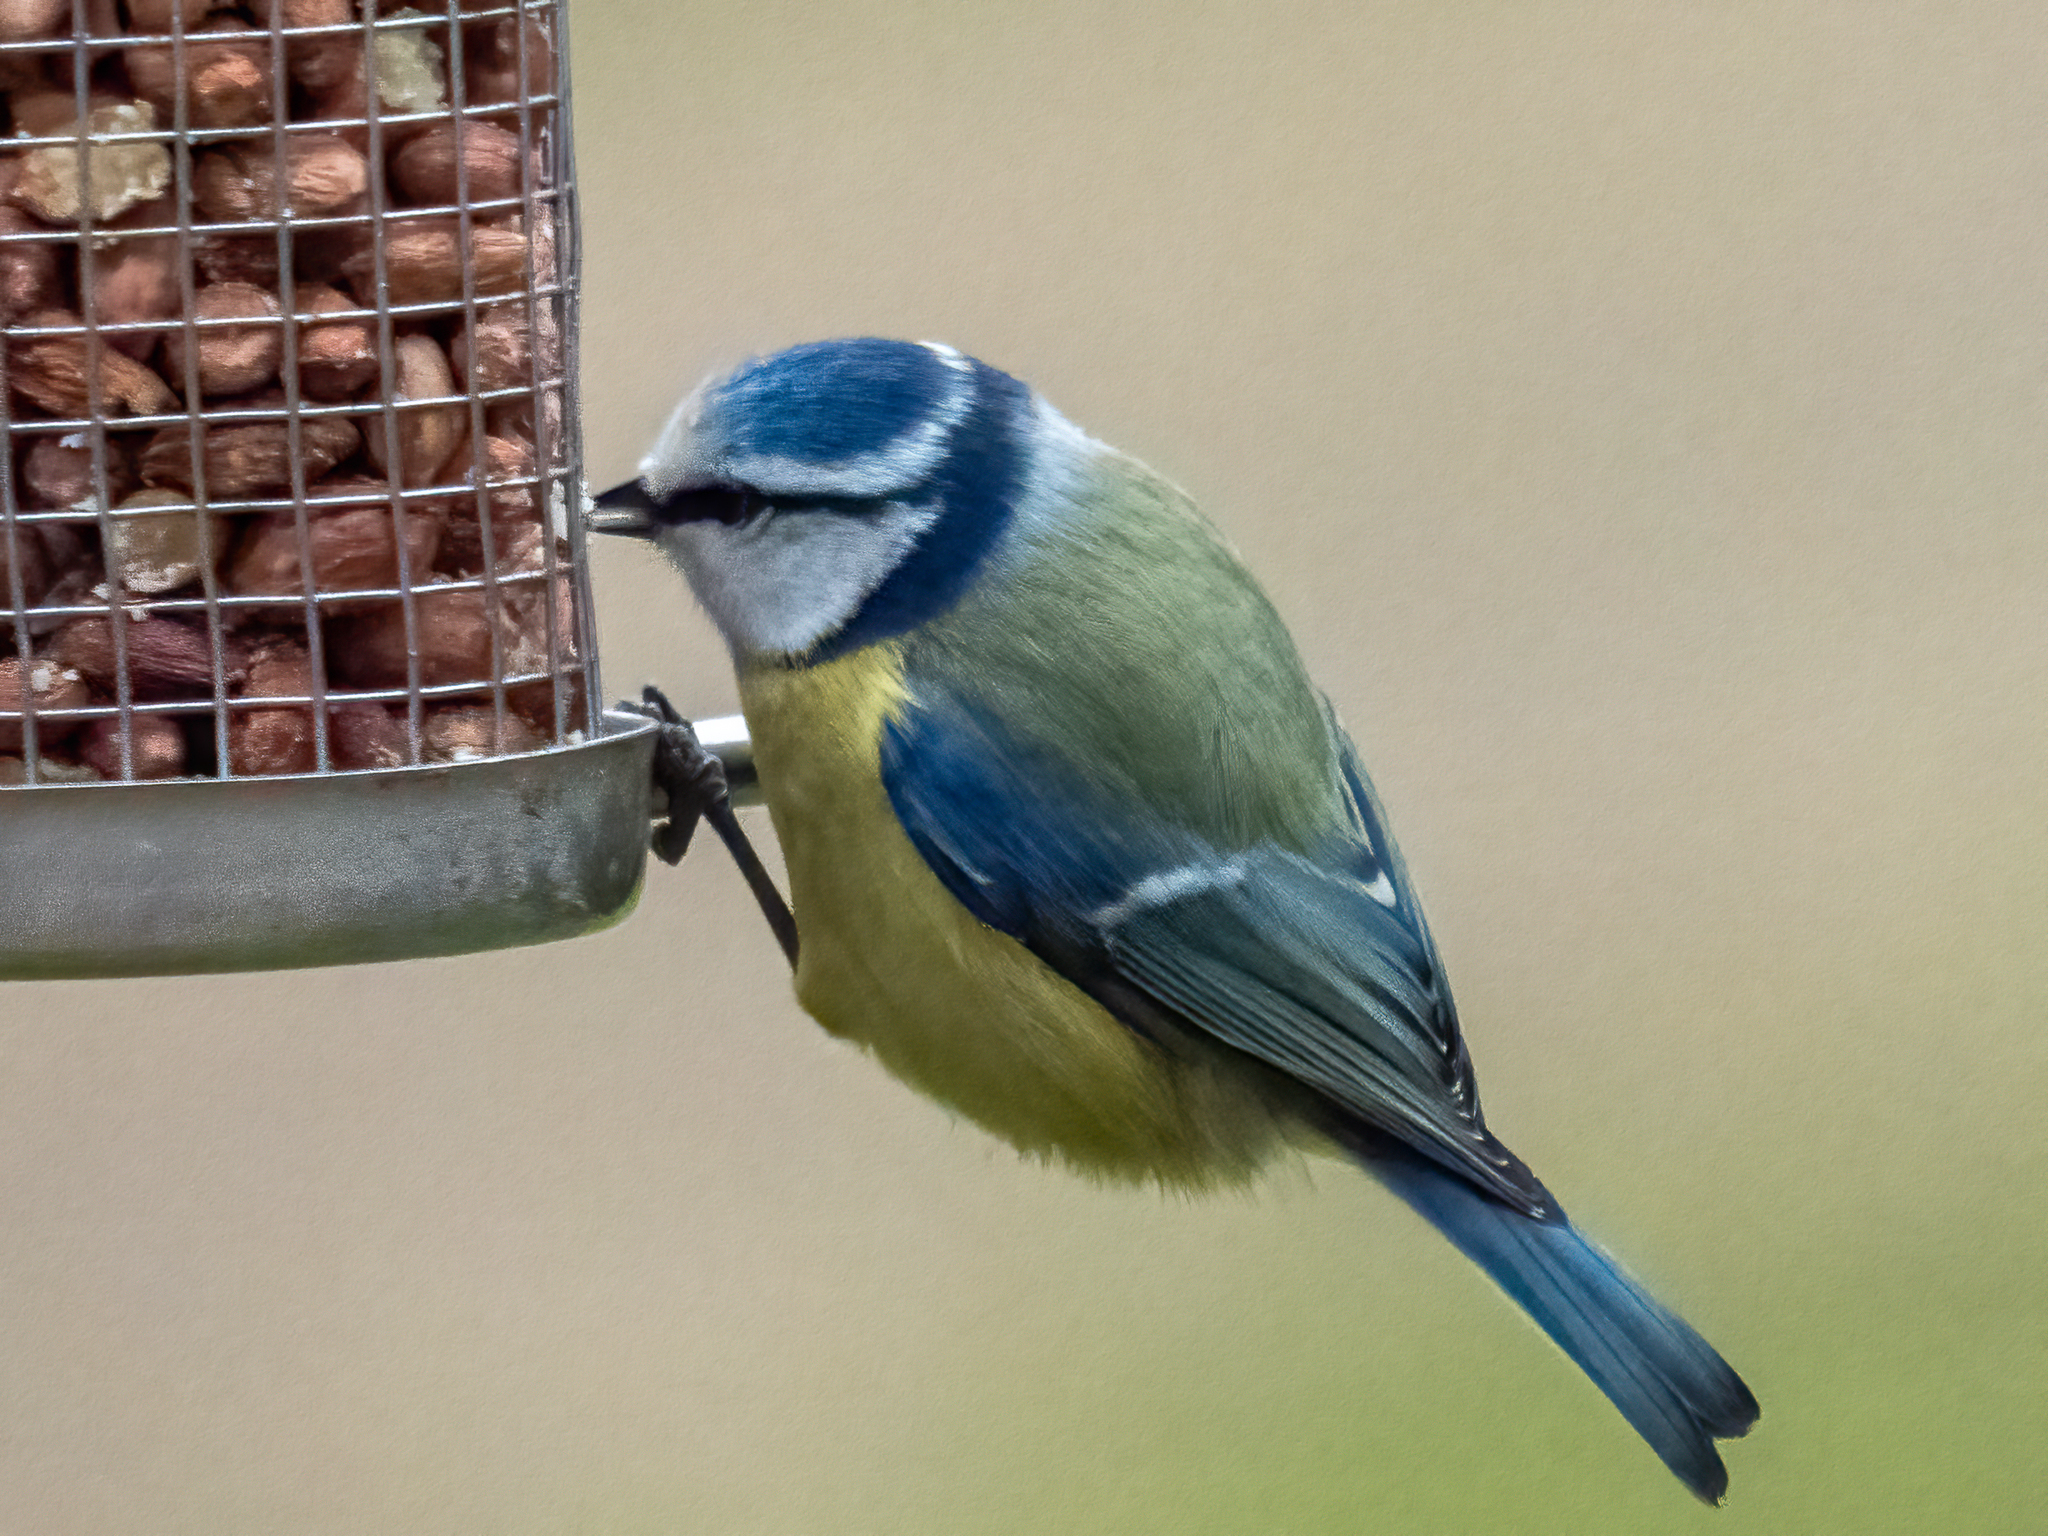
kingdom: Animalia
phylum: Chordata
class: Aves
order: Passeriformes
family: Paridae
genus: Cyanistes
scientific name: Cyanistes caeruleus
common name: Eurasian blue tit
